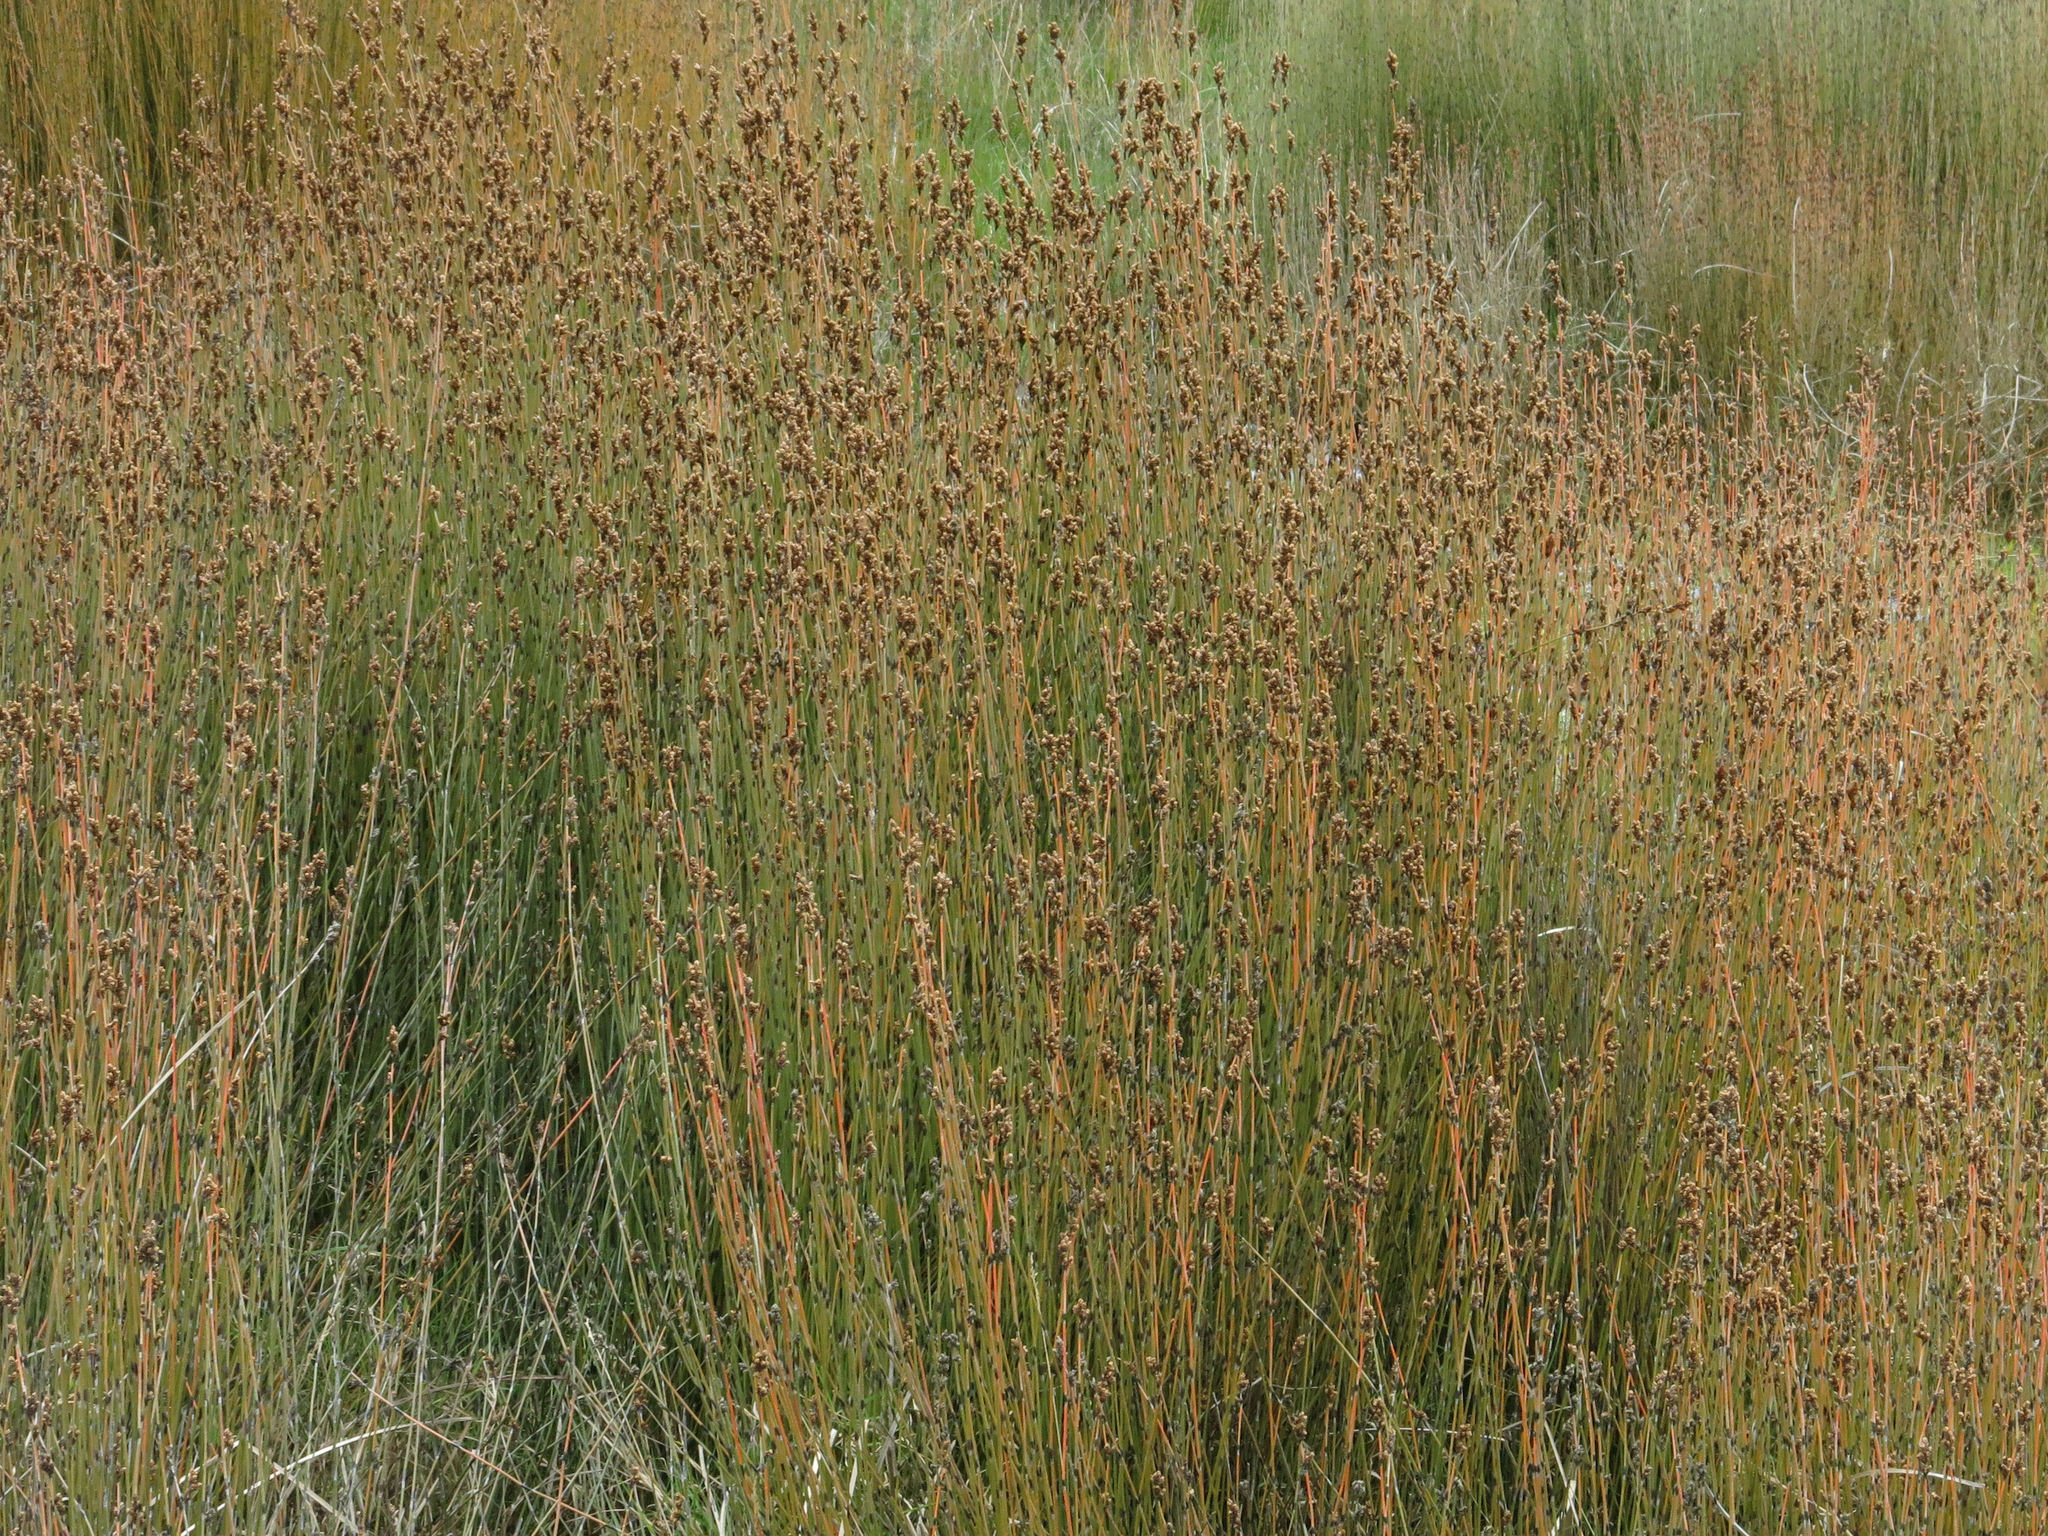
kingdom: Plantae
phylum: Tracheophyta
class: Liliopsida
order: Poales
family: Restionaceae
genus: Apodasmia
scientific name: Apodasmia similis
